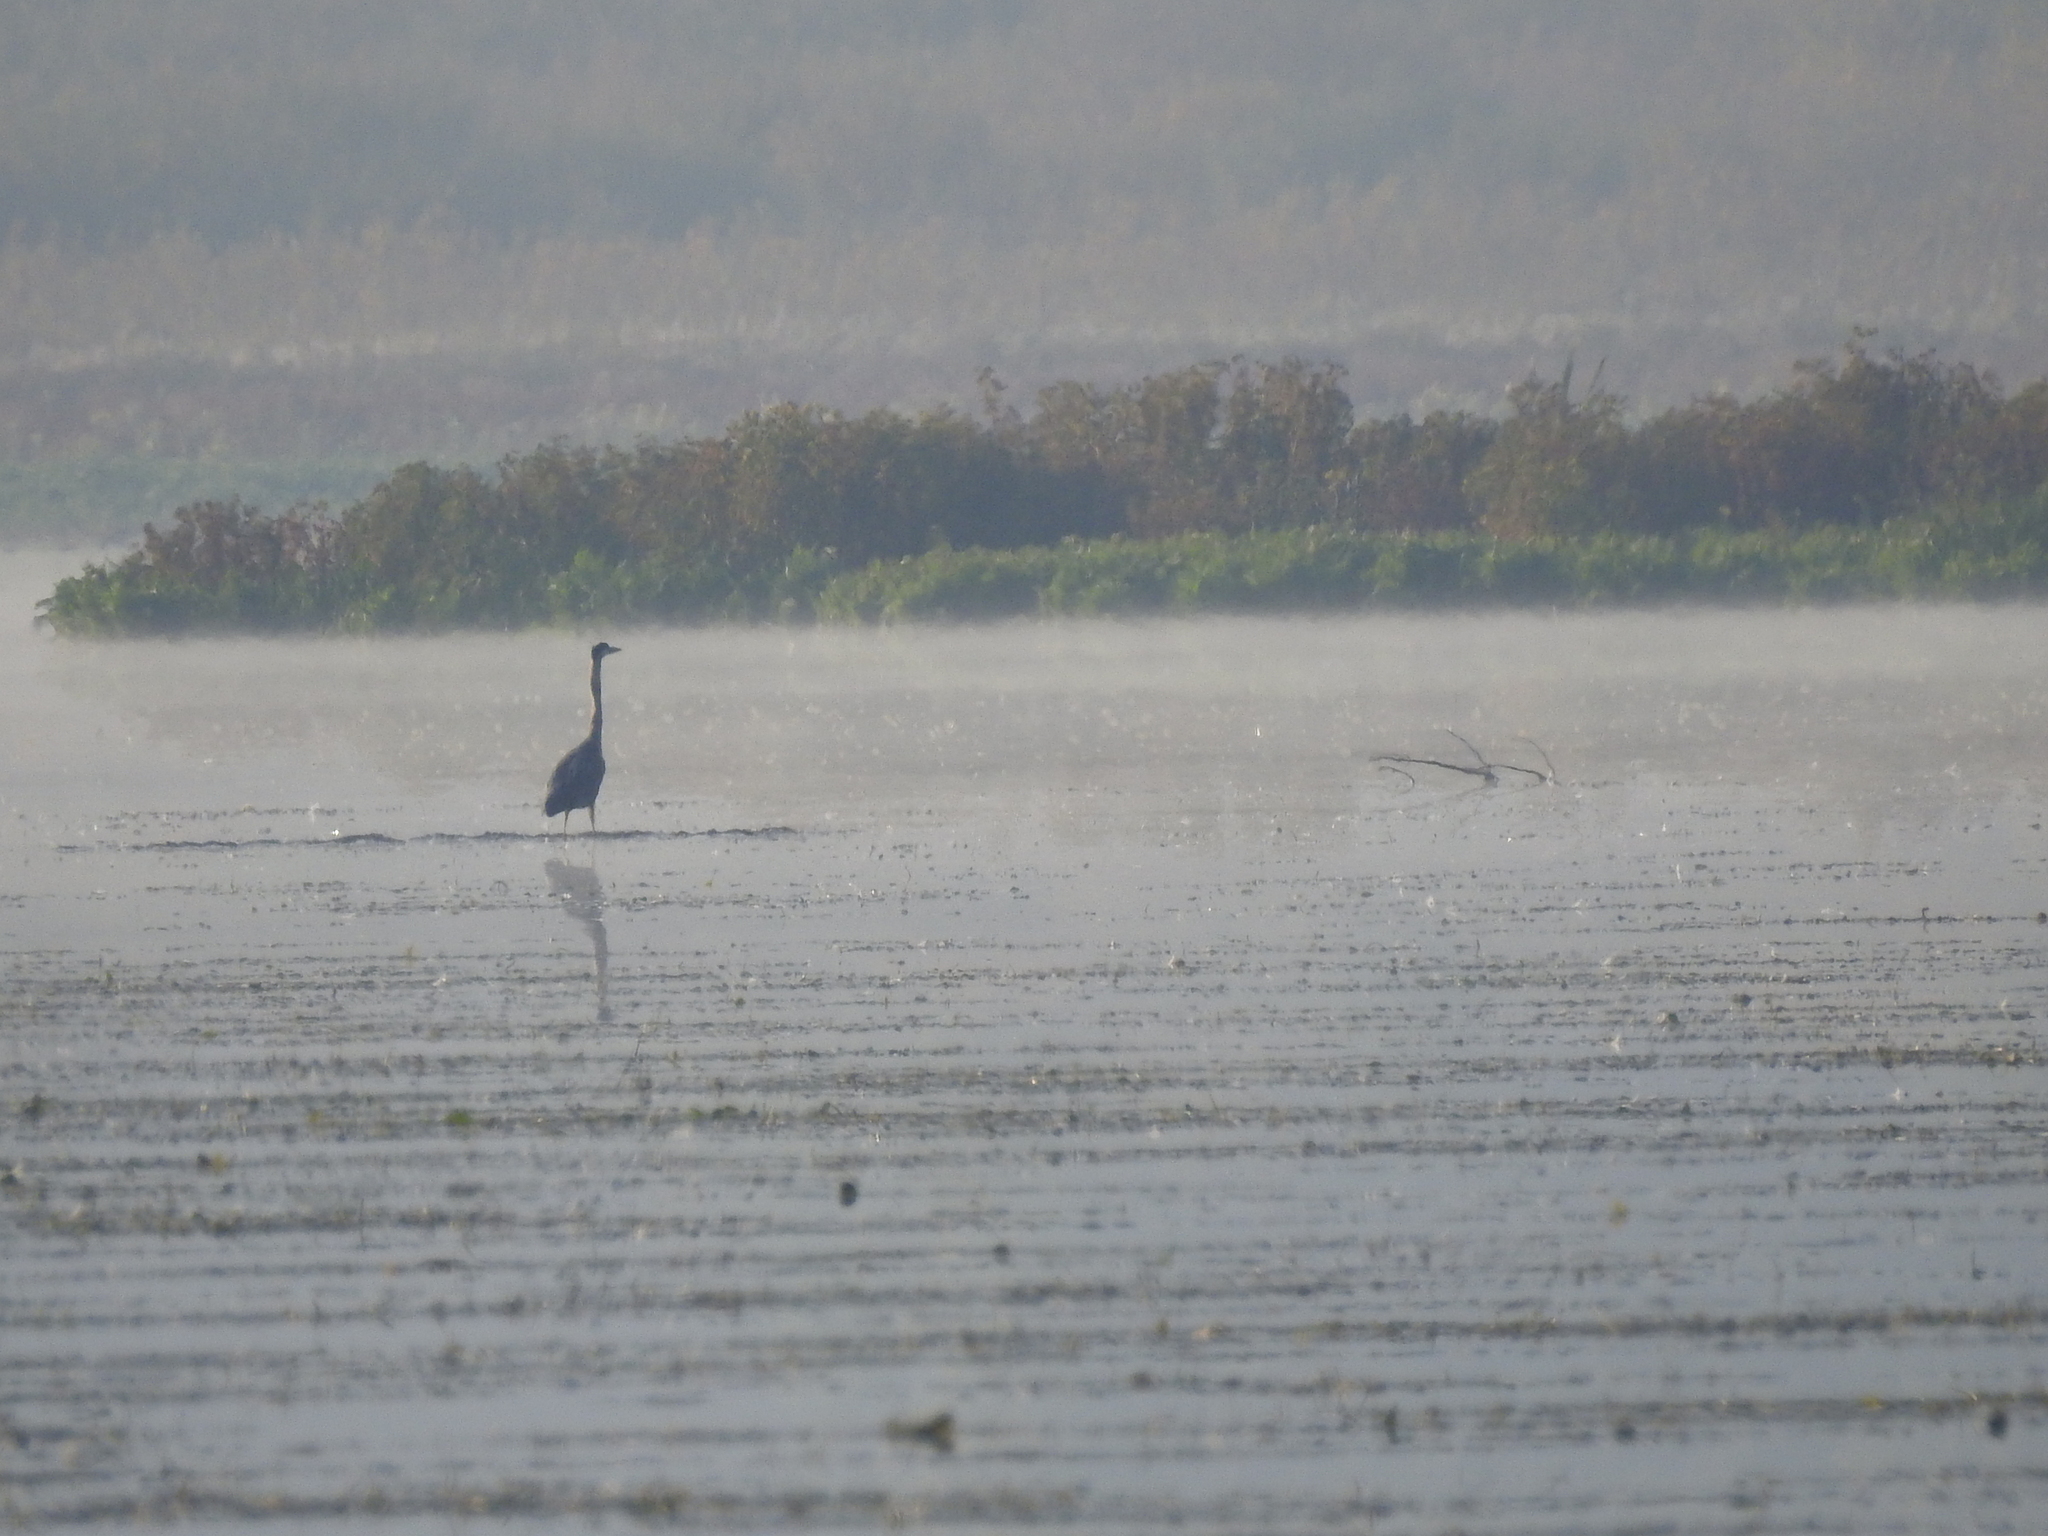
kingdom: Animalia
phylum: Chordata
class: Aves
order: Pelecaniformes
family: Ardeidae
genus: Ardea
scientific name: Ardea cinerea
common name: Grey heron
